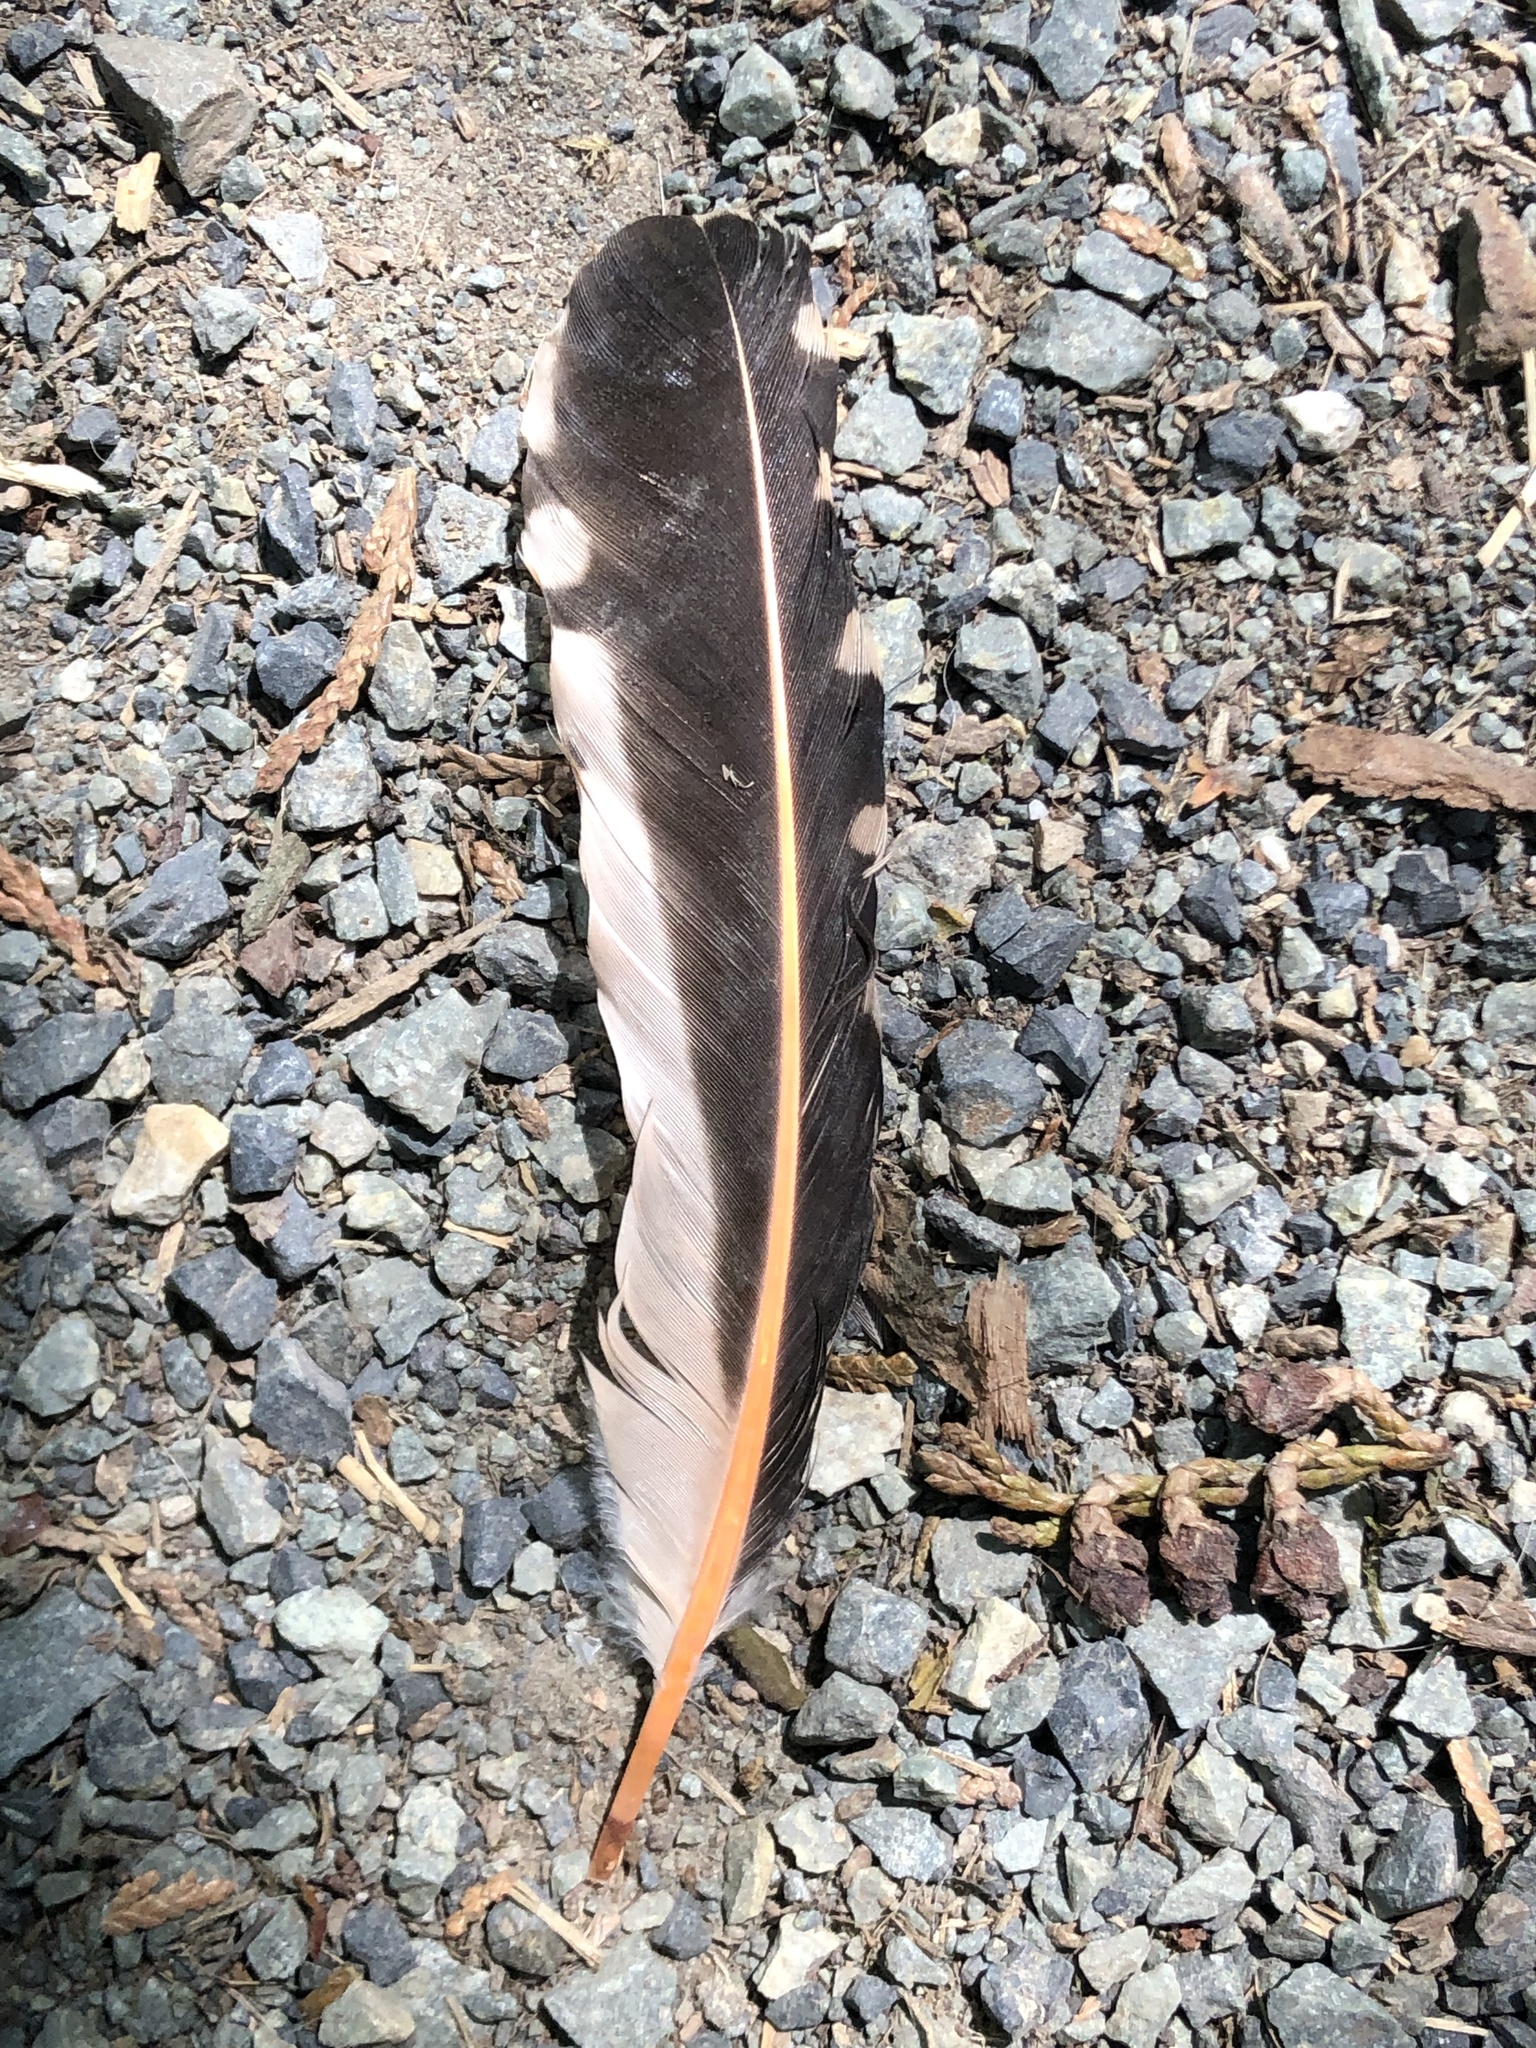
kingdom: Animalia
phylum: Chordata
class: Aves
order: Piciformes
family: Picidae
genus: Colaptes
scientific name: Colaptes auratus
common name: Northern flicker
